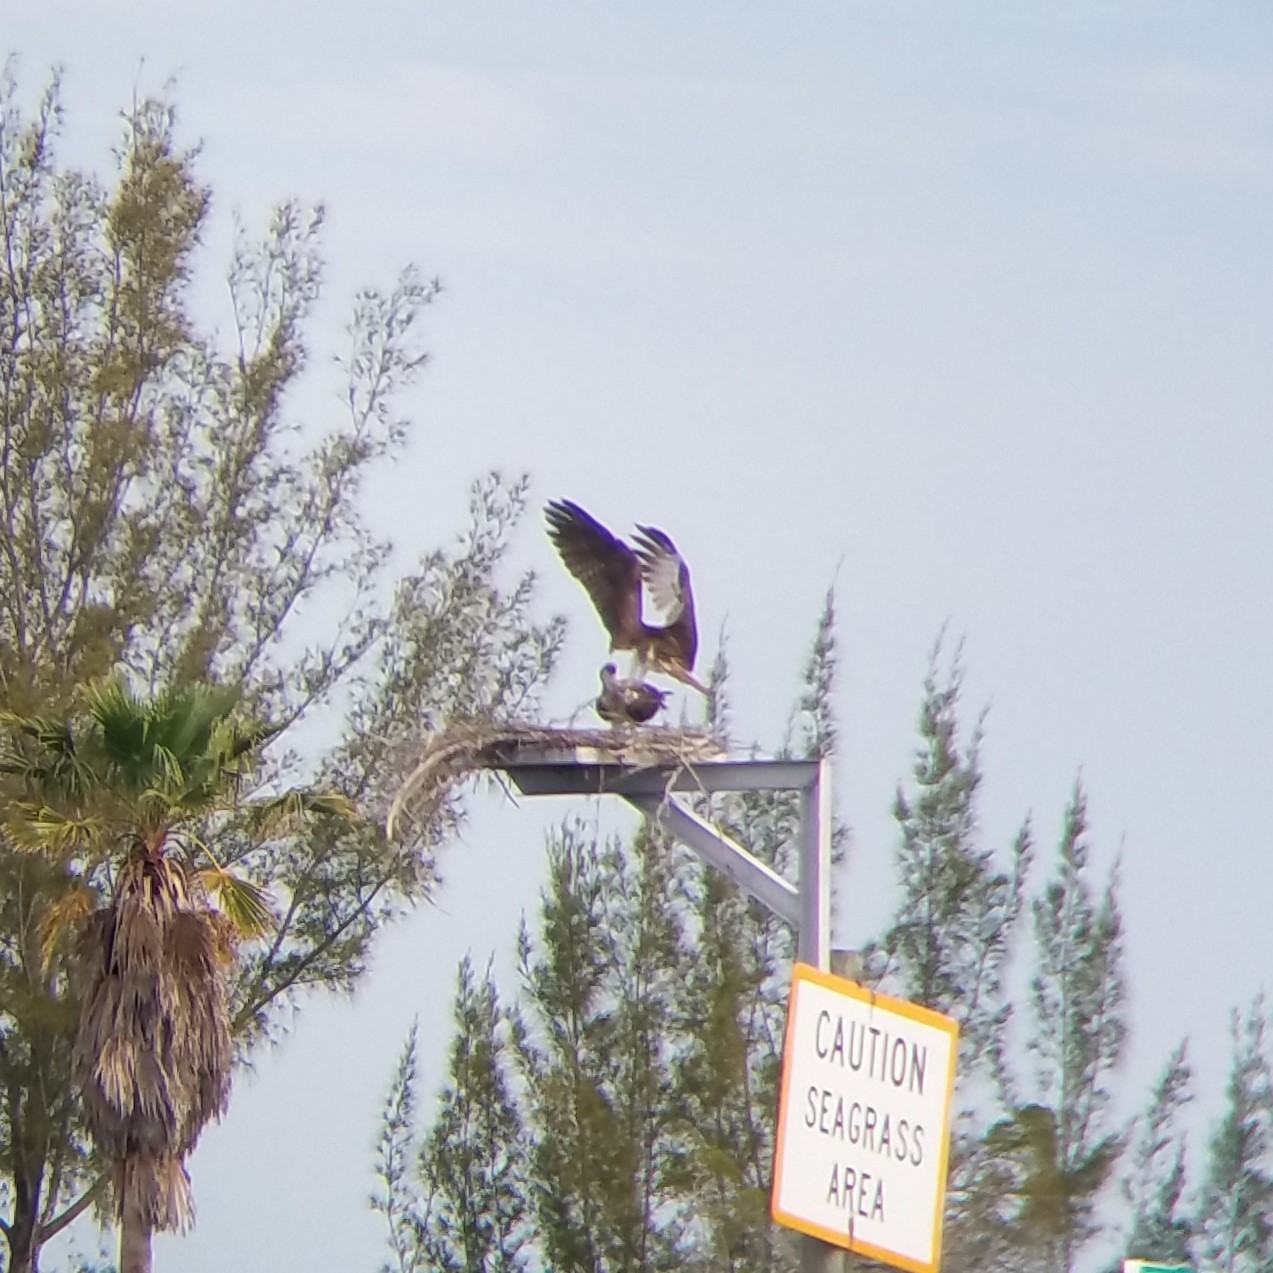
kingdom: Animalia
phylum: Chordata
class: Aves
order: Accipitriformes
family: Pandionidae
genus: Pandion
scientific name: Pandion haliaetus
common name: Osprey
